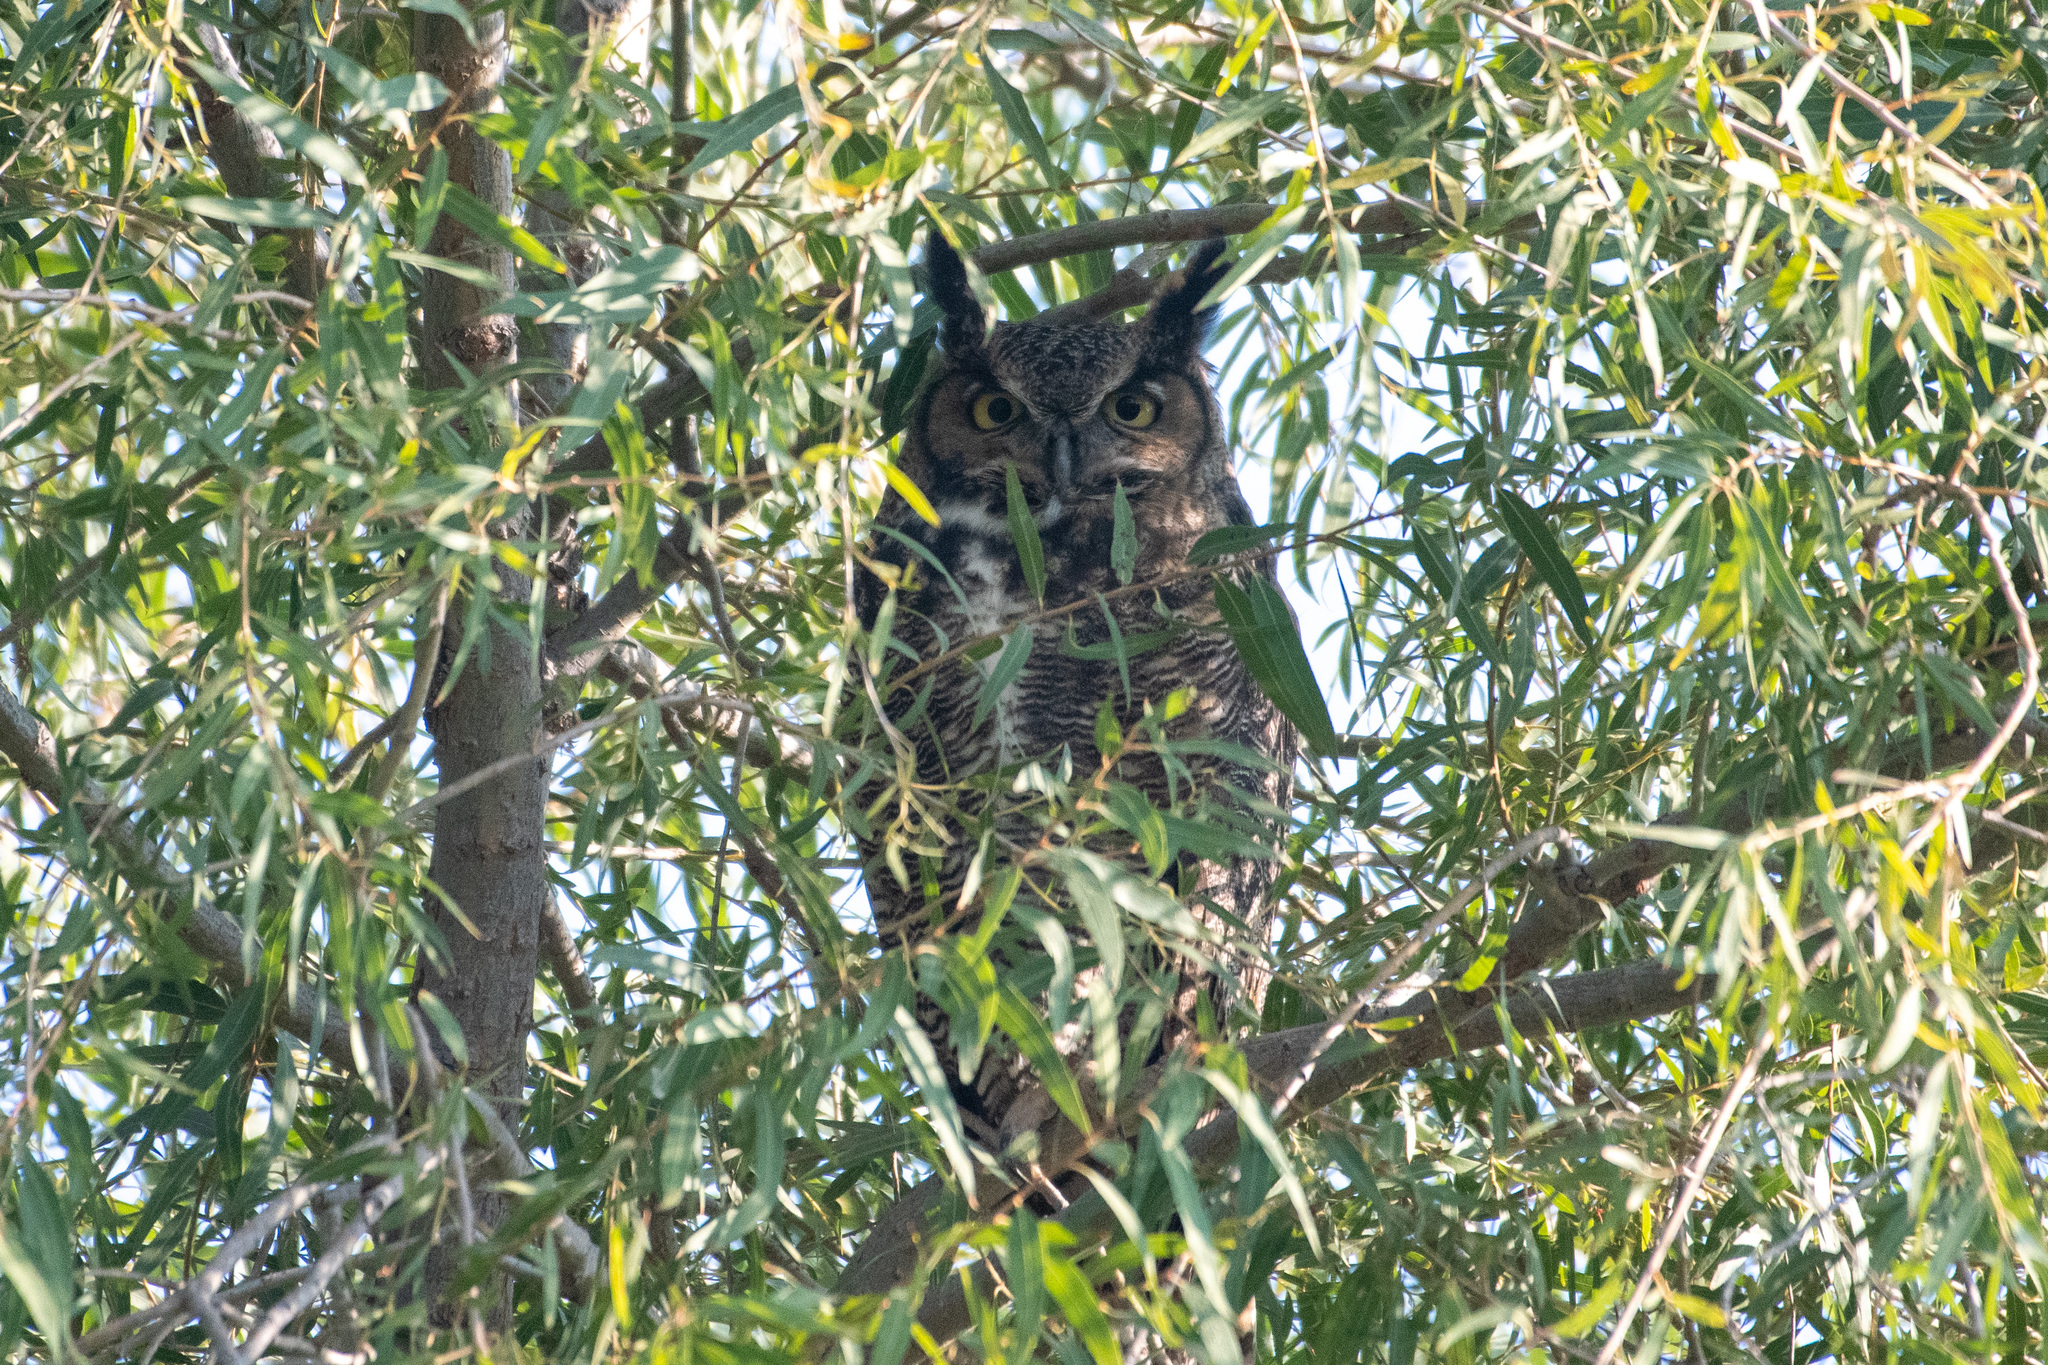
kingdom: Animalia
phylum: Chordata
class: Aves
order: Strigiformes
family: Strigidae
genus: Bubo
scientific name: Bubo virginianus
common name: Great horned owl
